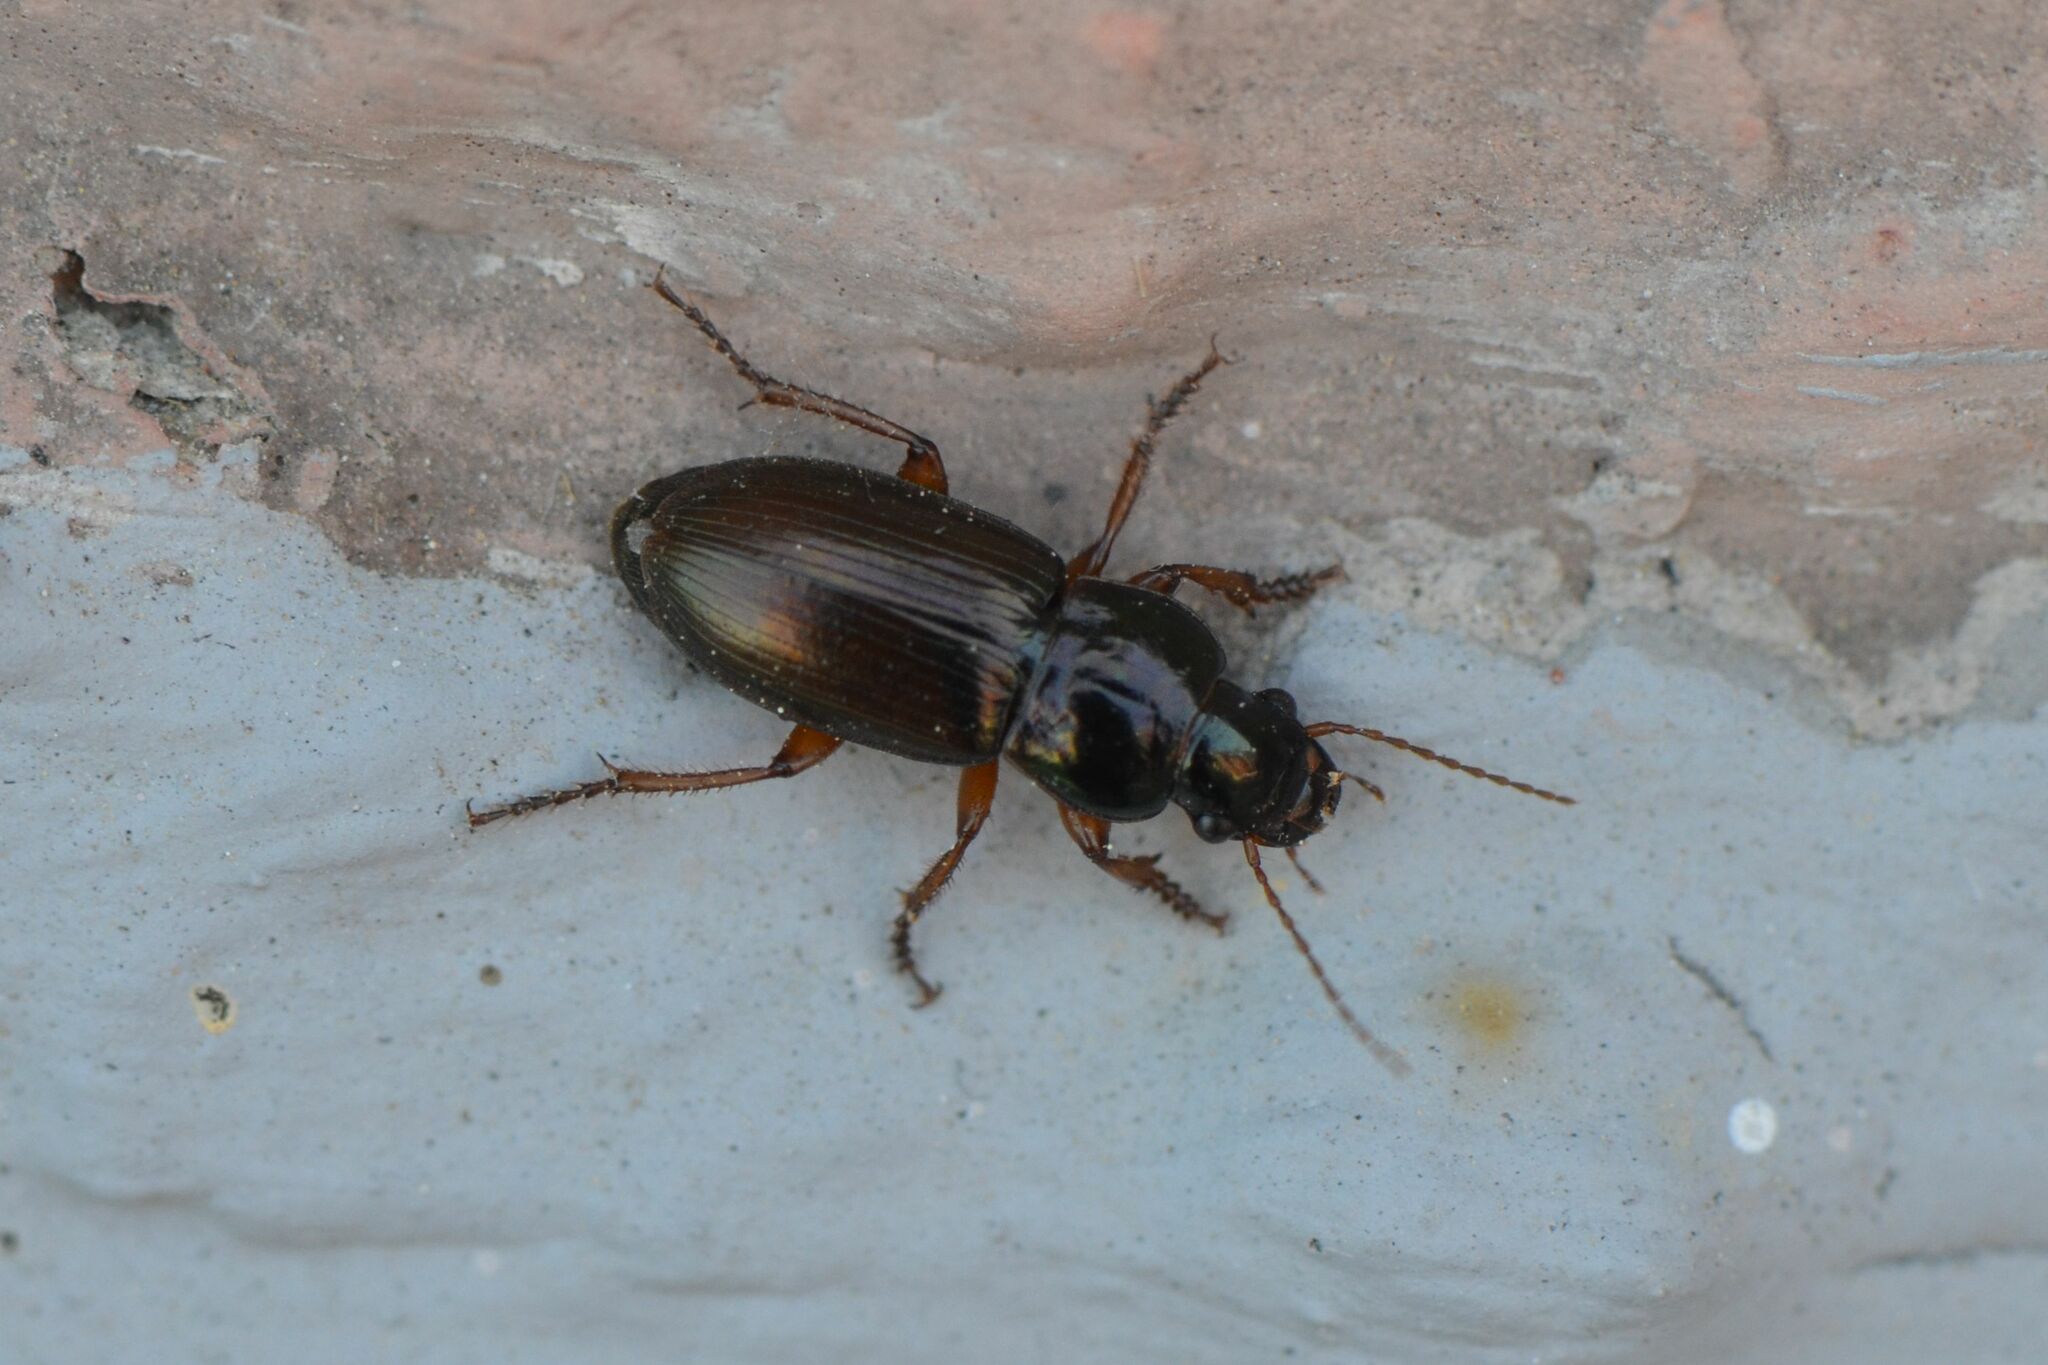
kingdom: Animalia
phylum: Arthropoda
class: Insecta
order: Coleoptera
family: Carabidae
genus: Harpalus
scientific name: Harpalus affinis
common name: Polychrome harp ground beetle
